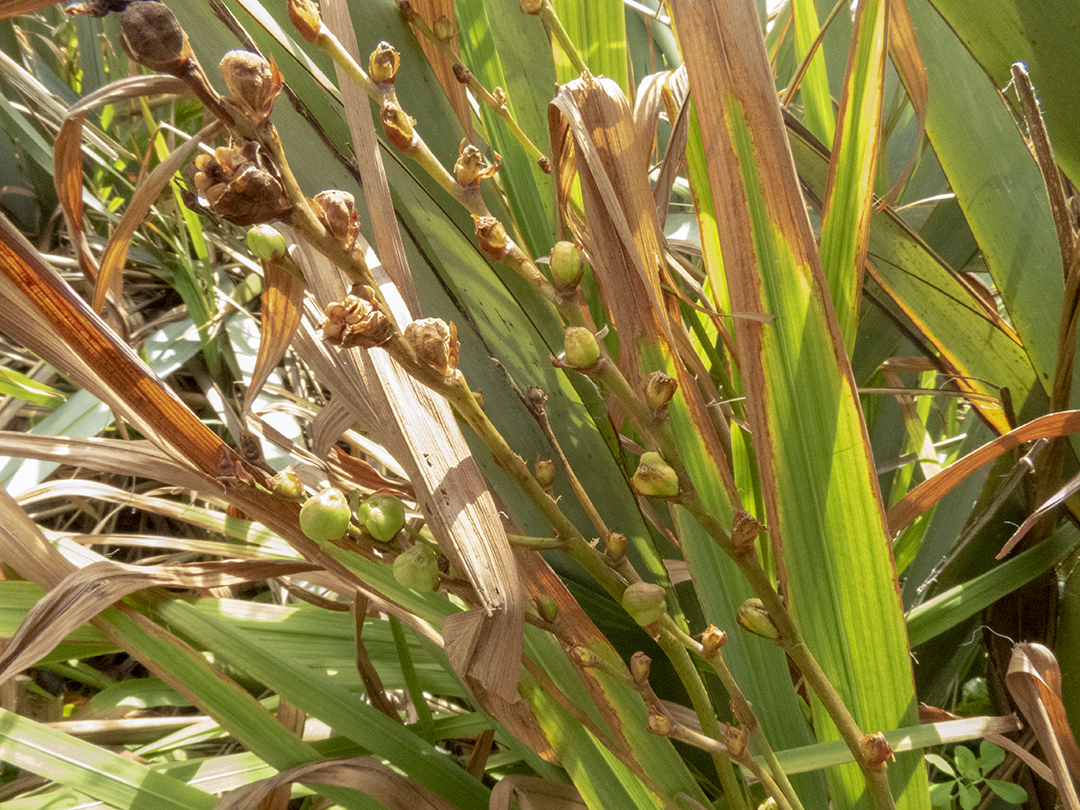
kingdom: Plantae
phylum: Tracheophyta
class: Liliopsida
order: Asparagales
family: Iridaceae
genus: Crocosmia
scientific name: Crocosmia crocosmiiflora
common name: Montbretia
